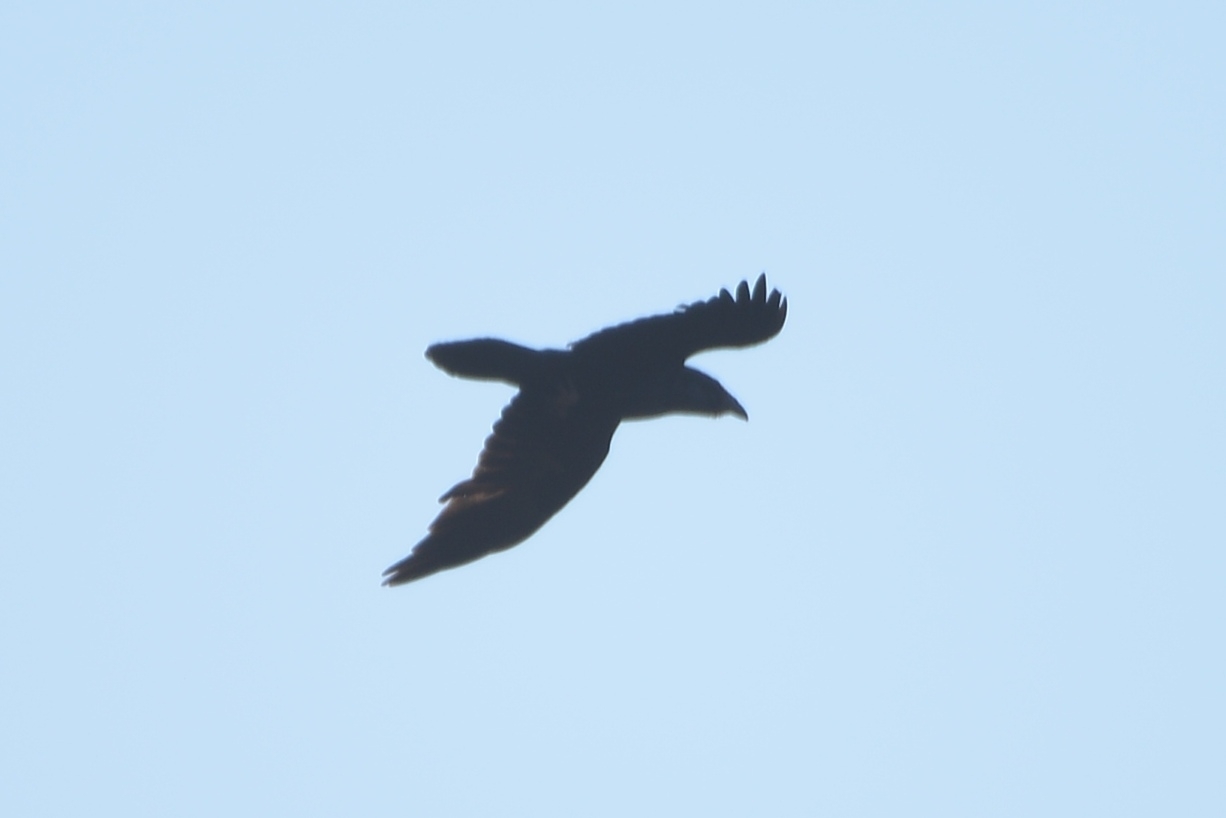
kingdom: Animalia
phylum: Chordata
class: Aves
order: Passeriformes
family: Corvidae
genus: Corvus
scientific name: Corvus corax
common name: Common raven
